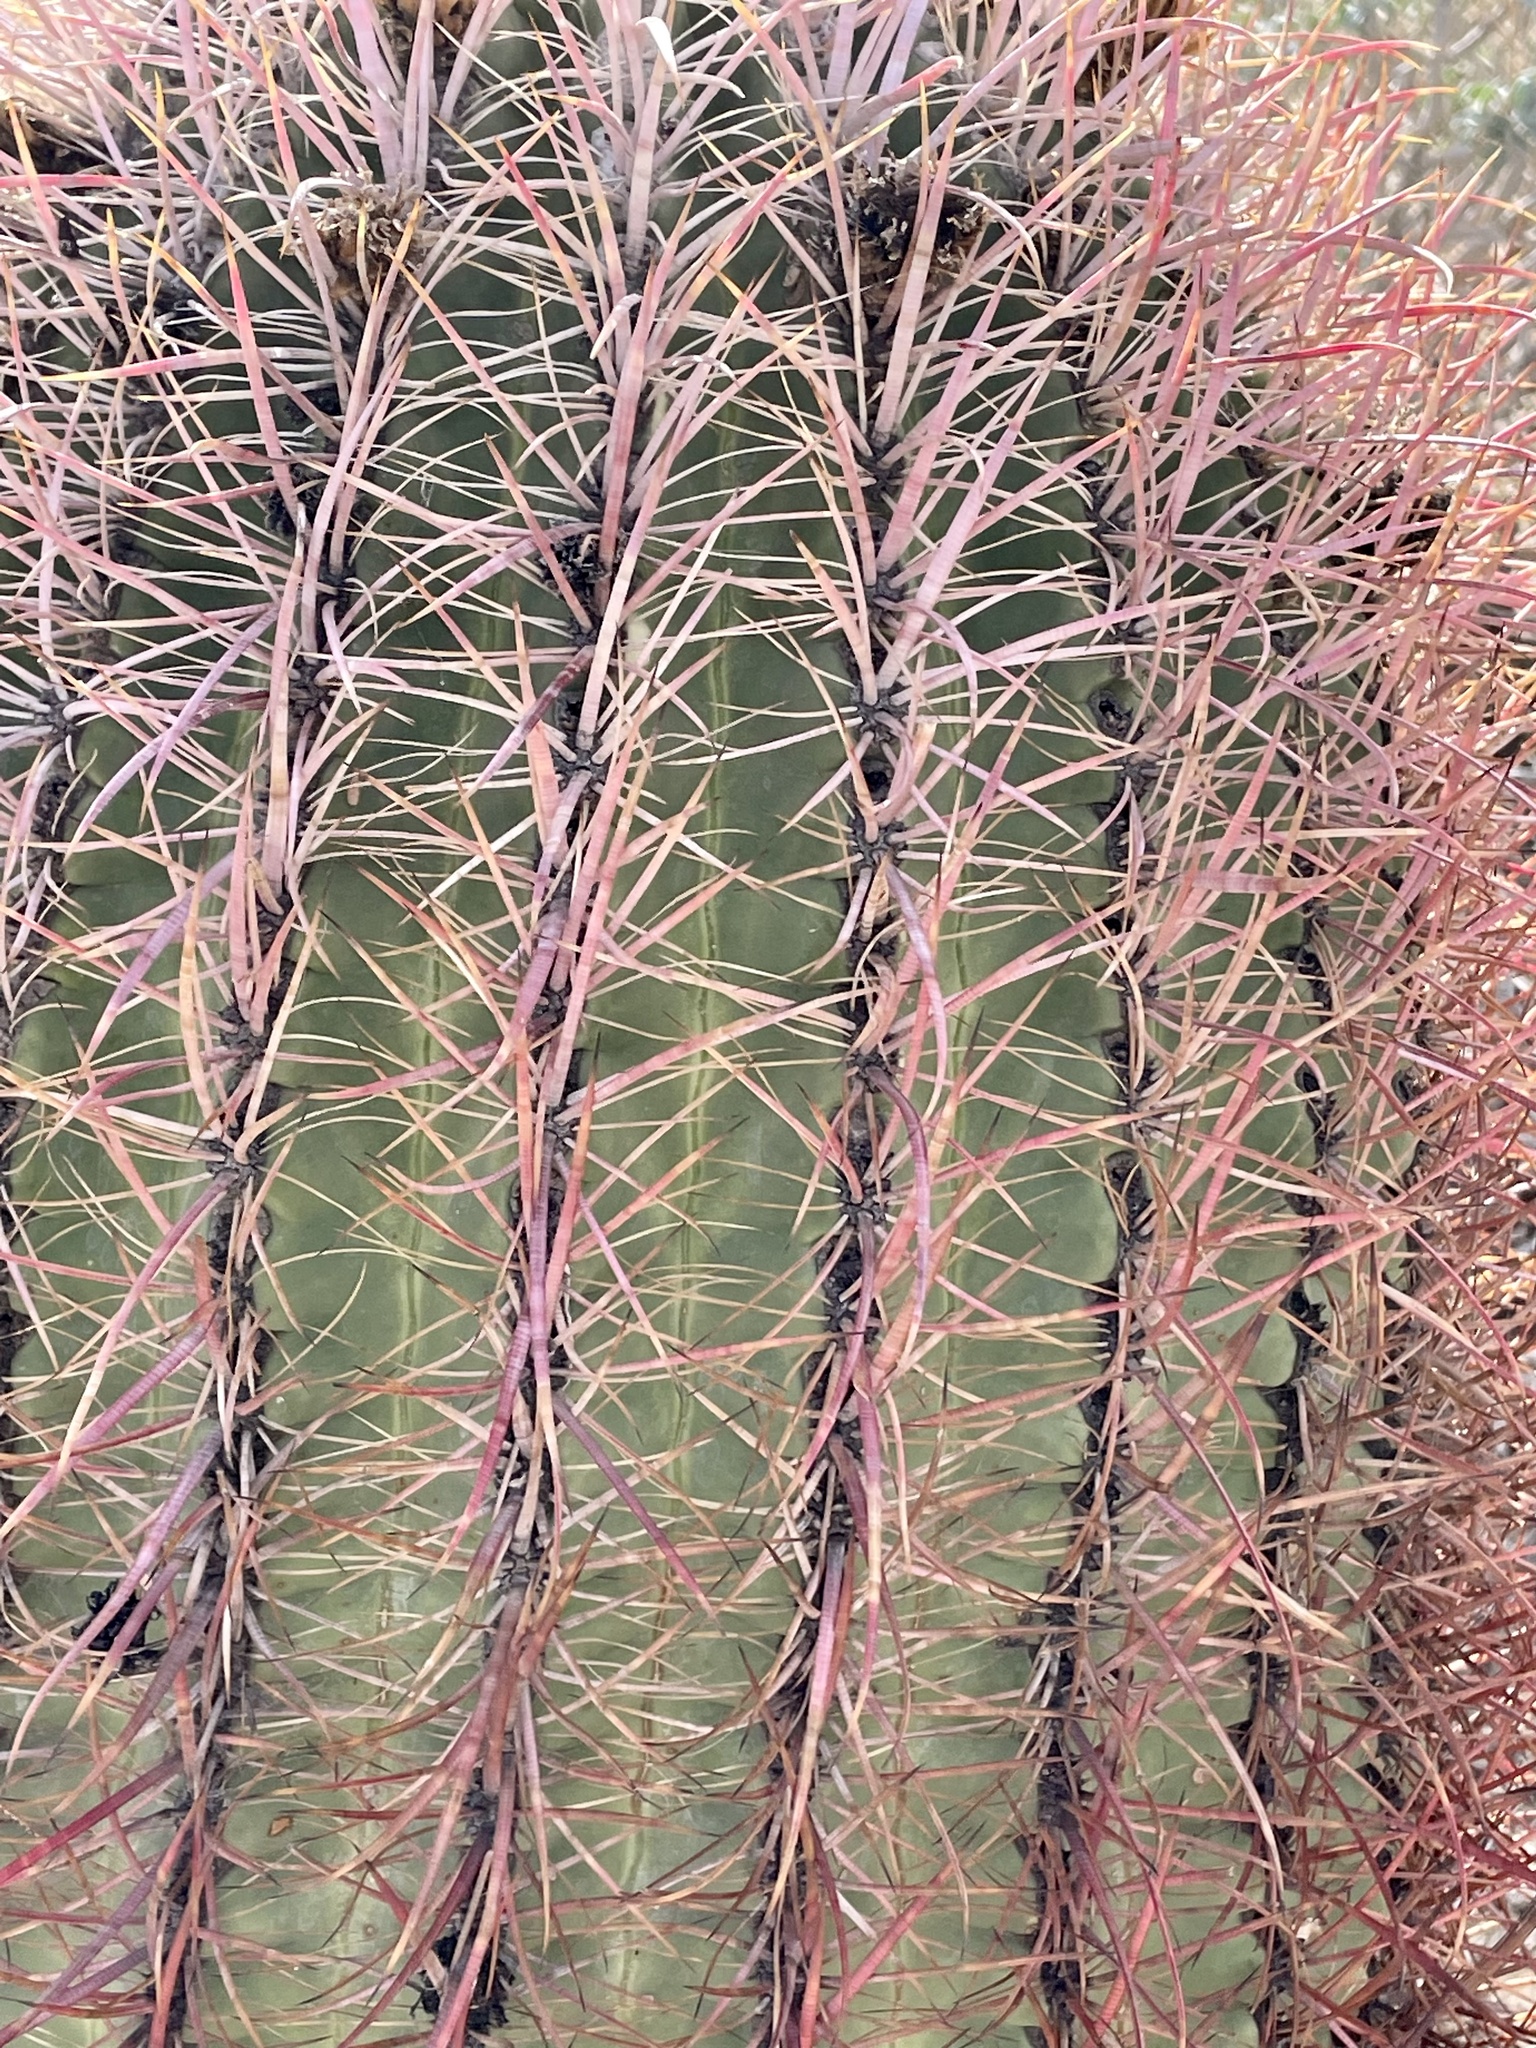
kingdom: Plantae
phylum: Tracheophyta
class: Magnoliopsida
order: Caryophyllales
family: Cactaceae
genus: Ferocactus
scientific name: Ferocactus cylindraceus
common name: California barrel cactus
